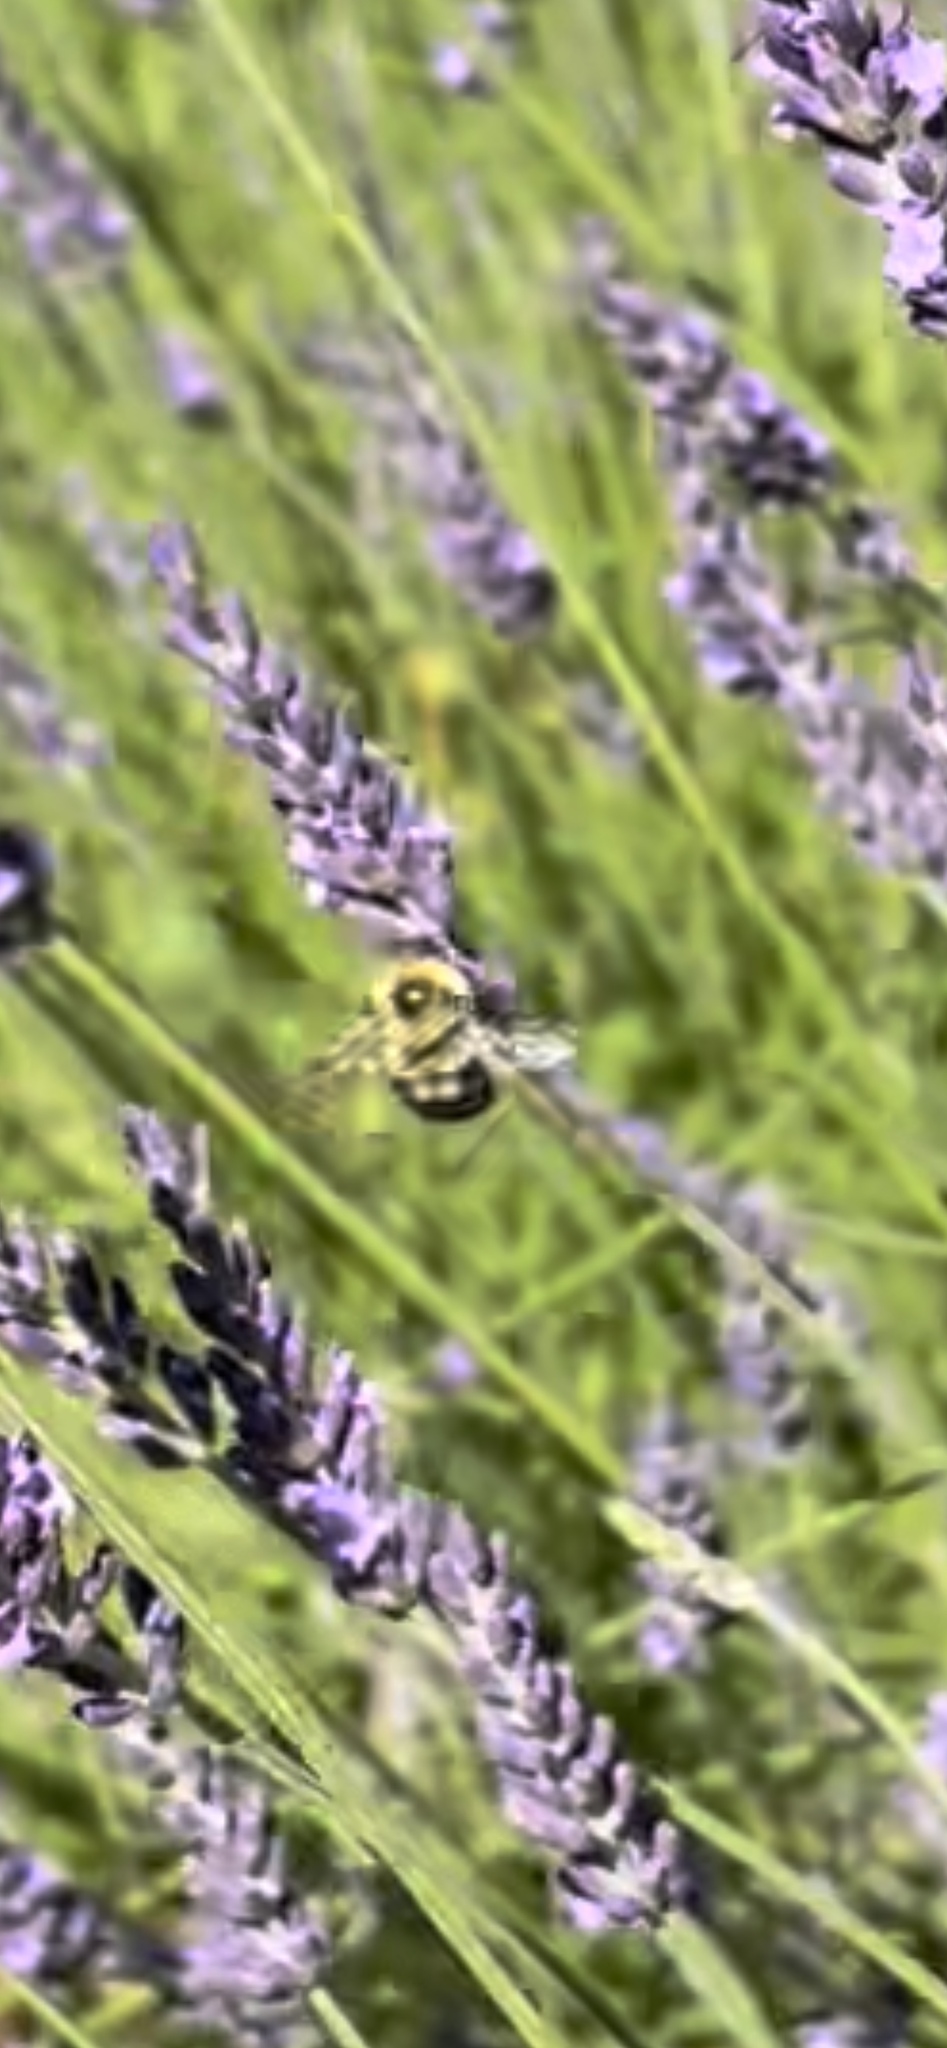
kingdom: Animalia
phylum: Arthropoda
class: Insecta
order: Hymenoptera
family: Apidae
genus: Bombus
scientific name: Bombus bimaculatus
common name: Two-spotted bumble bee
